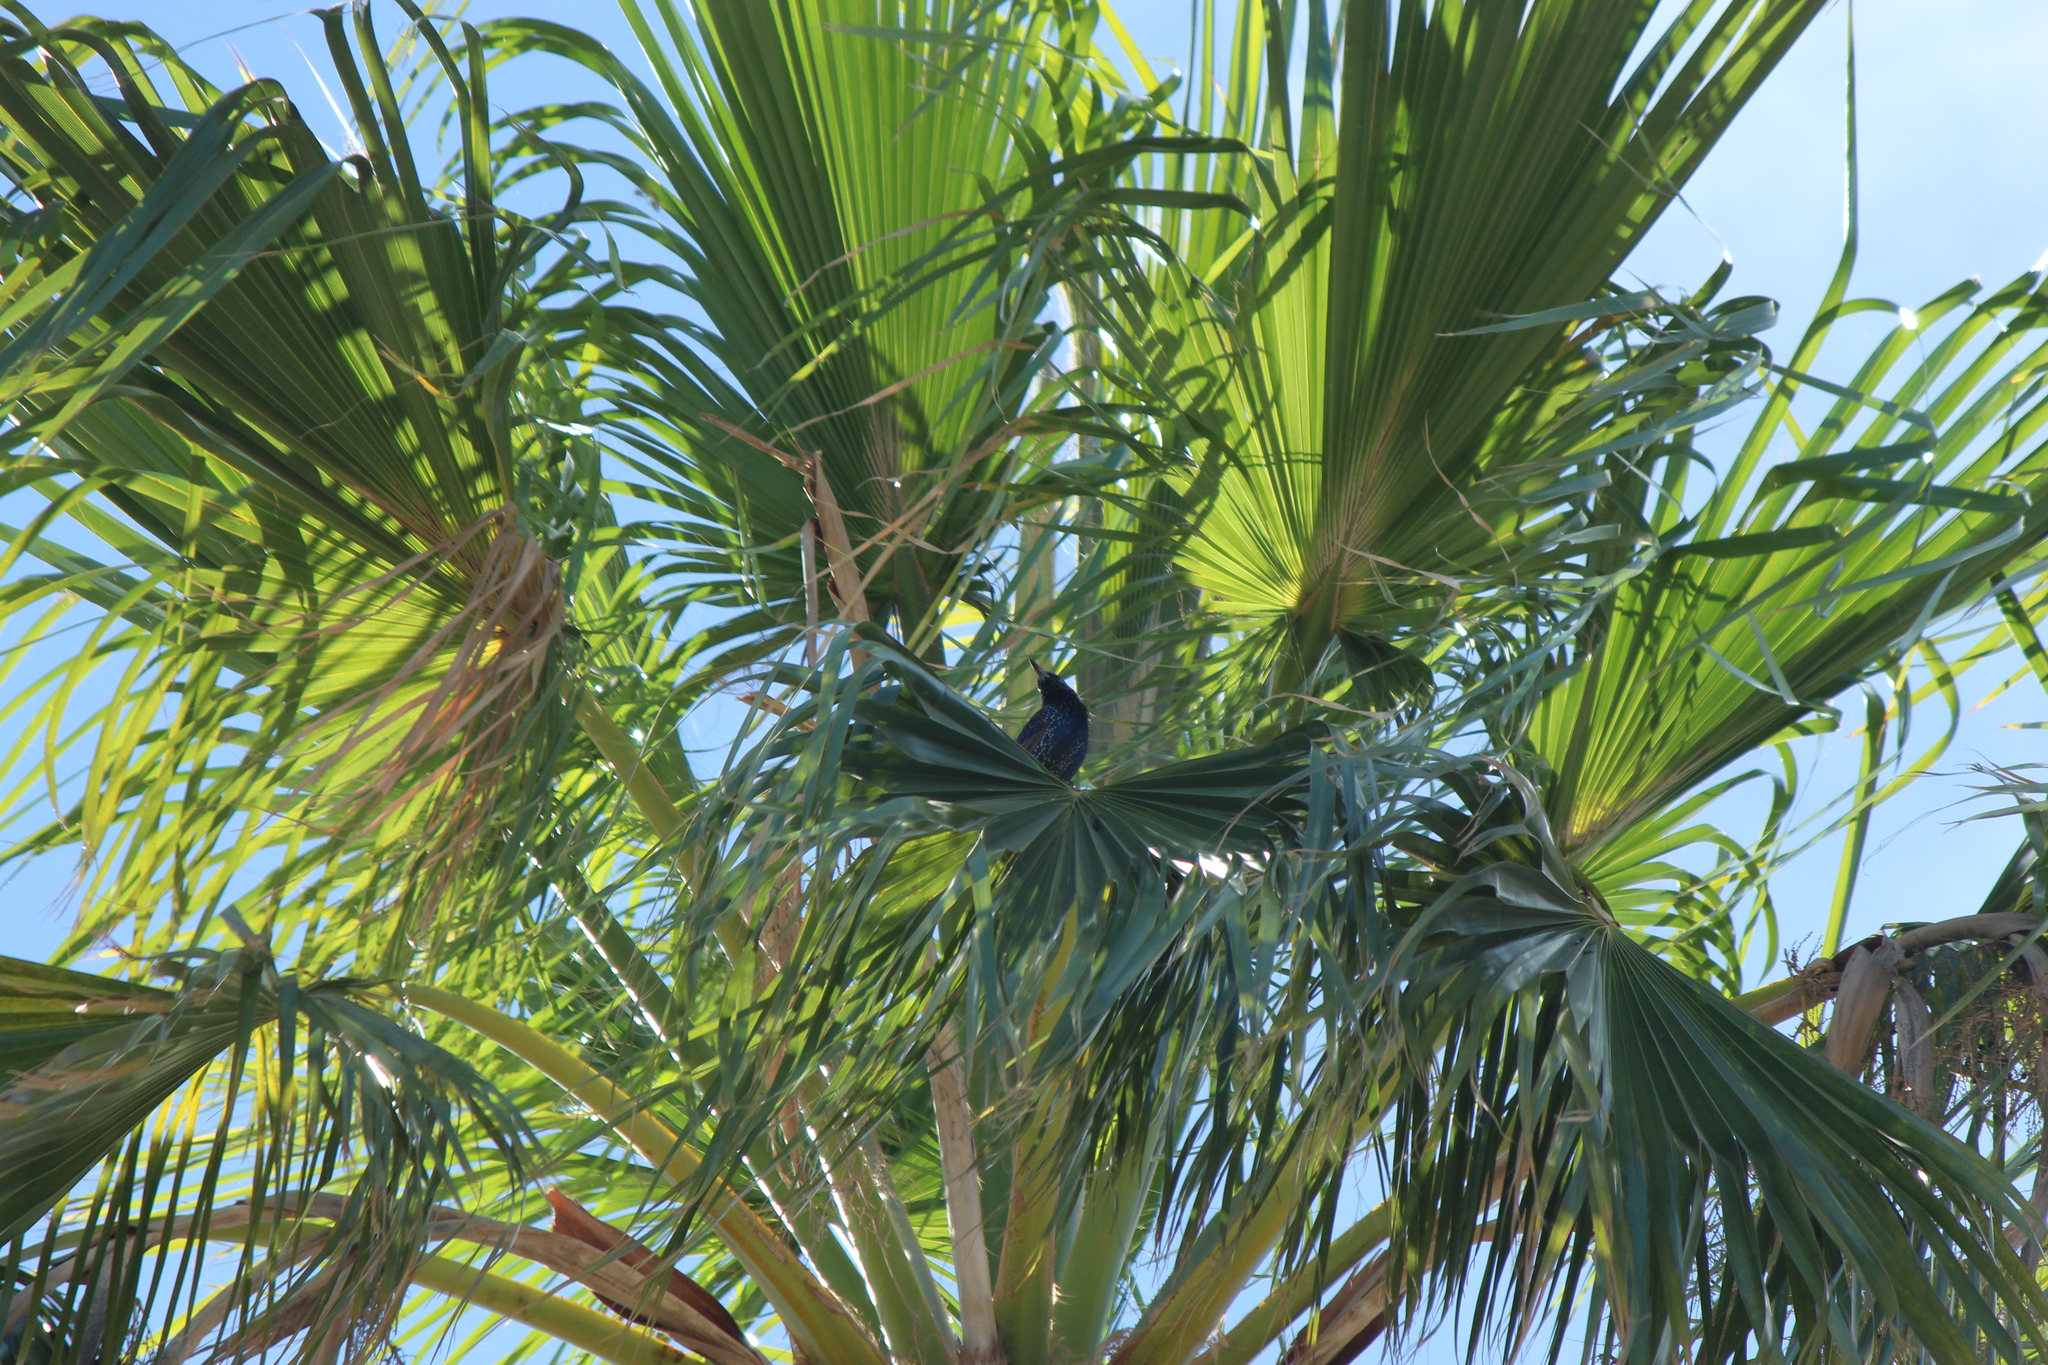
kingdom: Animalia
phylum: Chordata
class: Aves
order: Passeriformes
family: Sturnidae
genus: Sturnus
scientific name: Sturnus vulgaris
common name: Common starling
